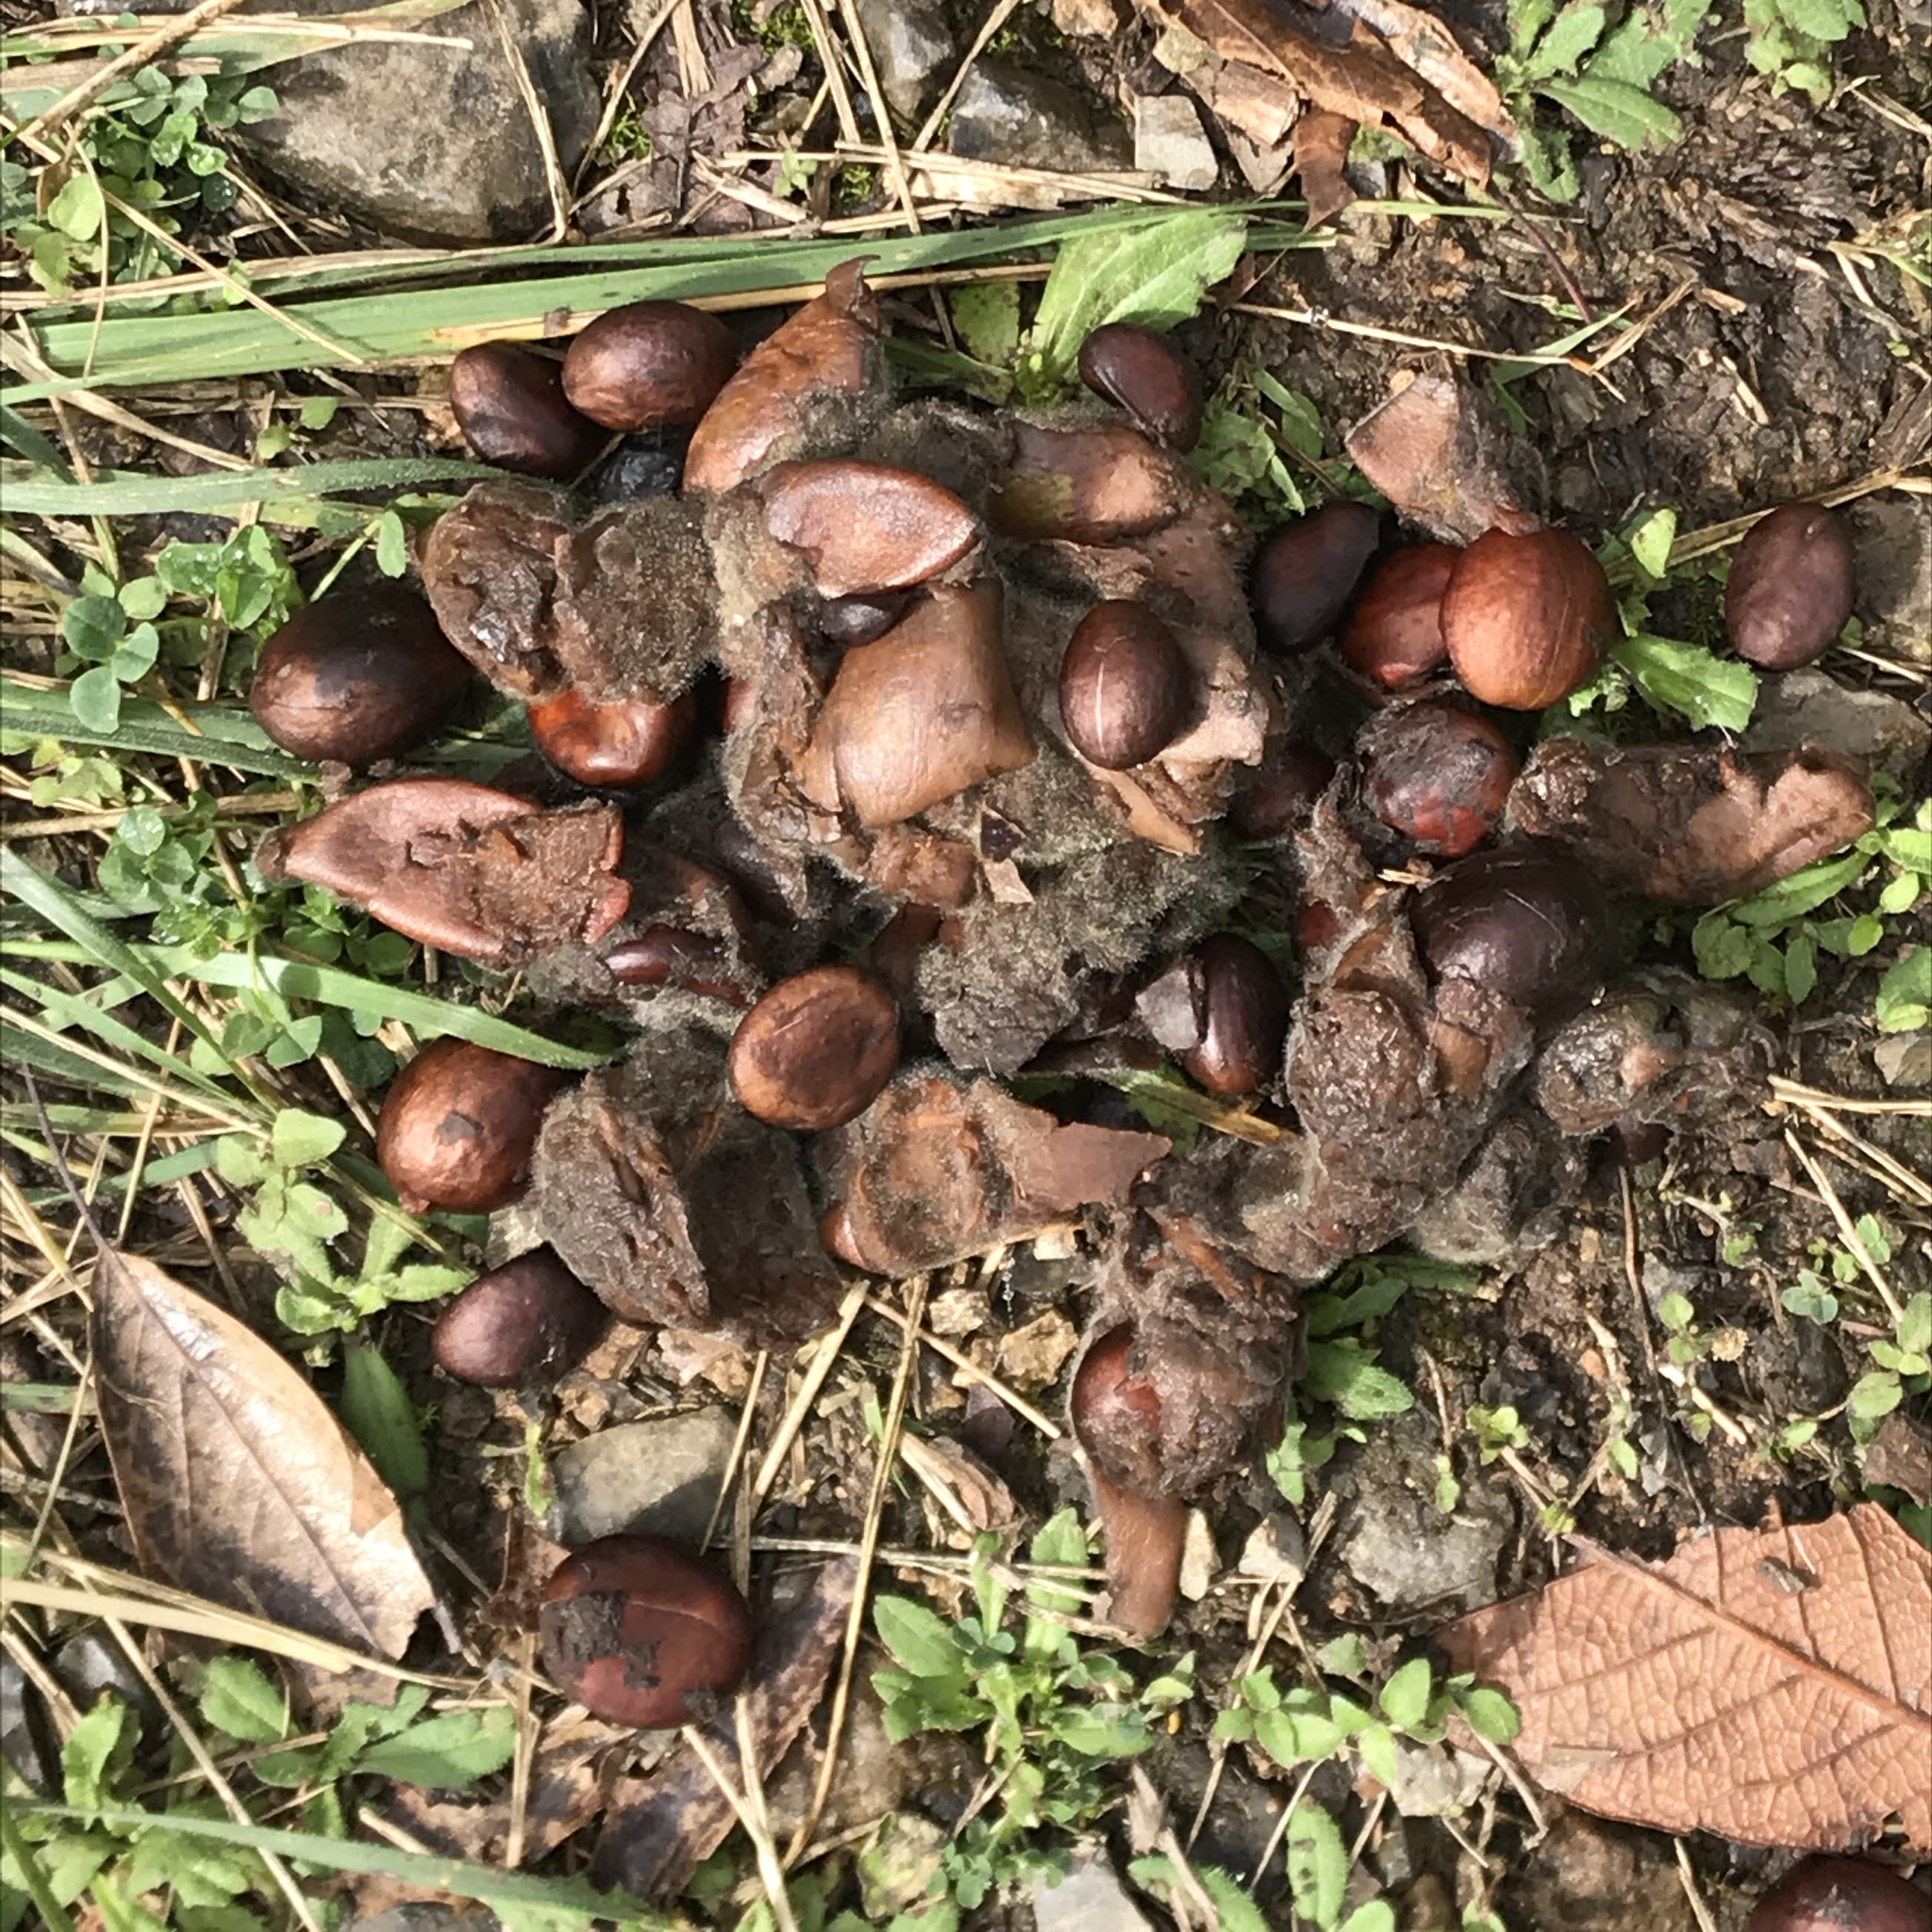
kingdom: Animalia
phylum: Chordata
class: Mammalia
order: Carnivora
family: Ursidae
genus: Ursus
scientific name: Ursus americanus
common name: American black bear
